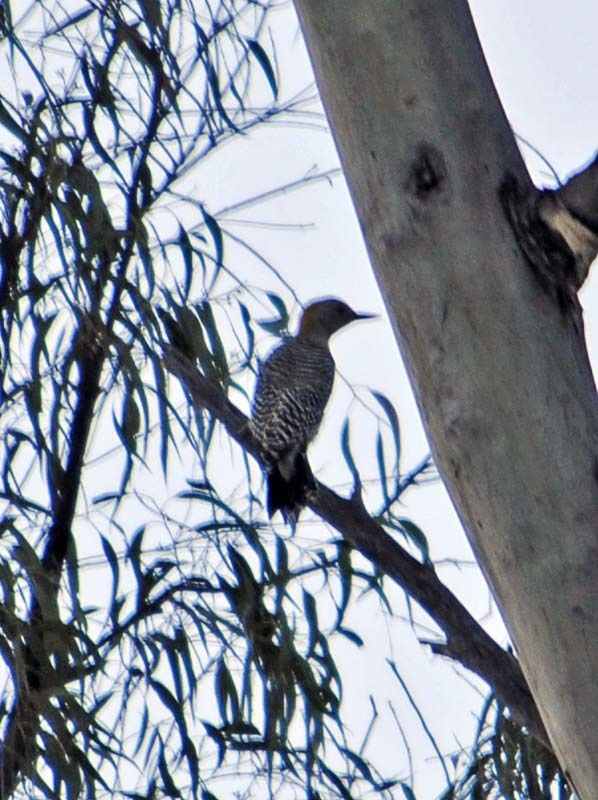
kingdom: Animalia
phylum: Chordata
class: Aves
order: Piciformes
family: Picidae
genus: Melanerpes
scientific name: Melanerpes aurifrons
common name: Golden-fronted woodpecker
